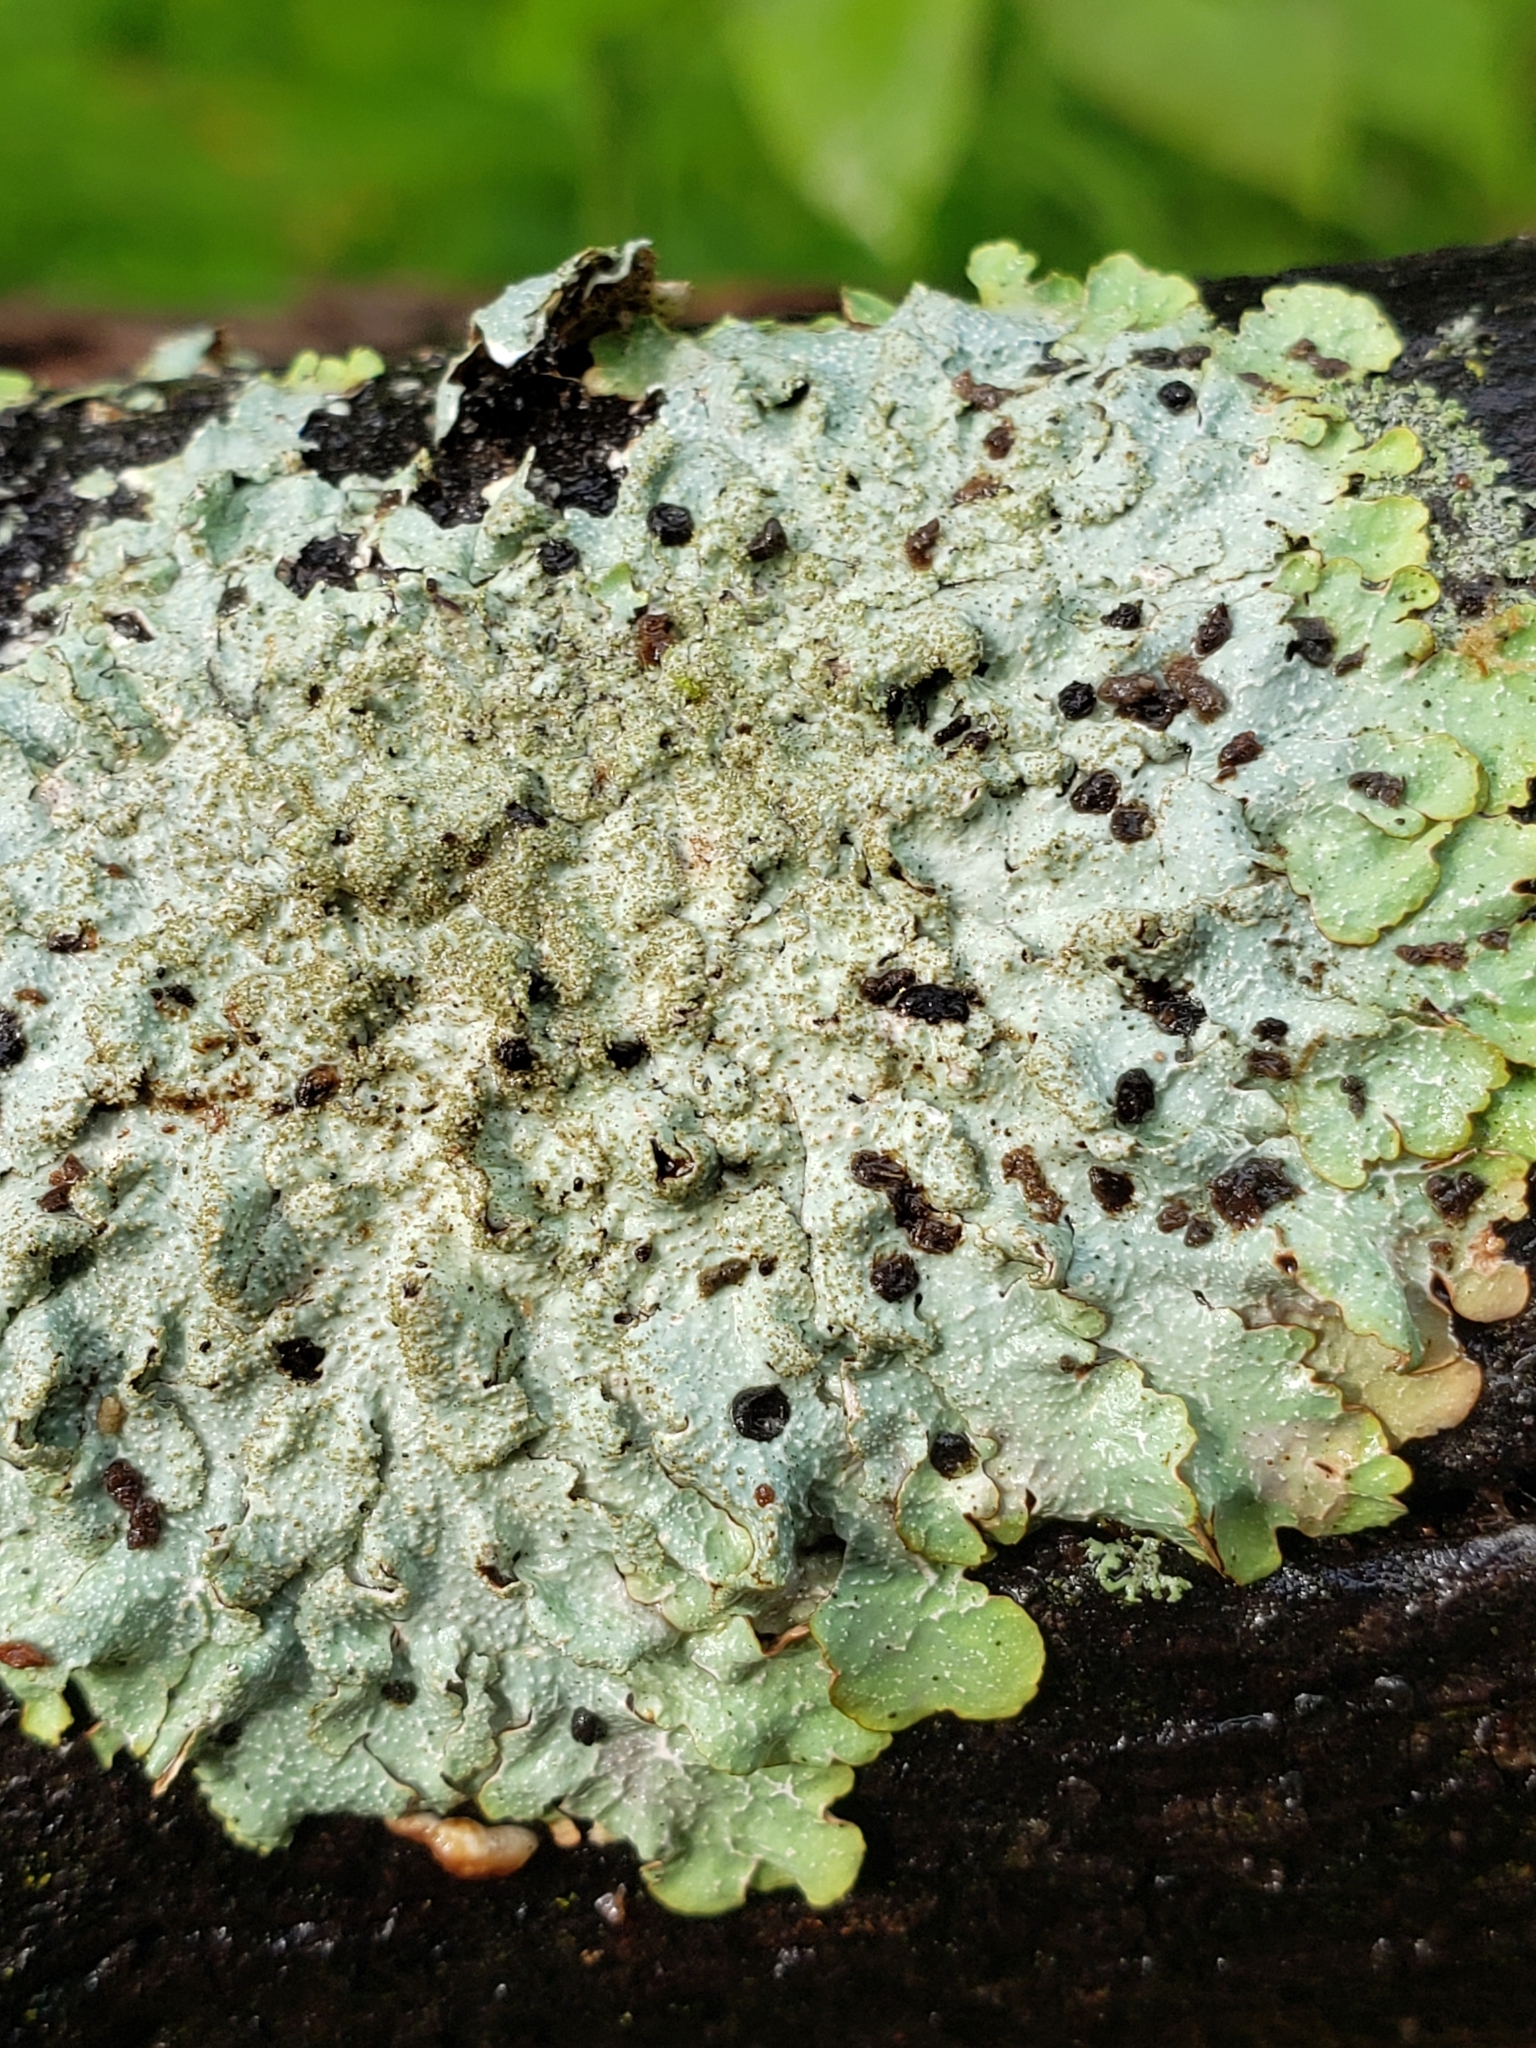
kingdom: Fungi
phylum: Ascomycota
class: Lecanoromycetes
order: Lecanorales
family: Parmeliaceae
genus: Punctelia
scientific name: Punctelia rudecta
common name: Rough speckled shield lichen
